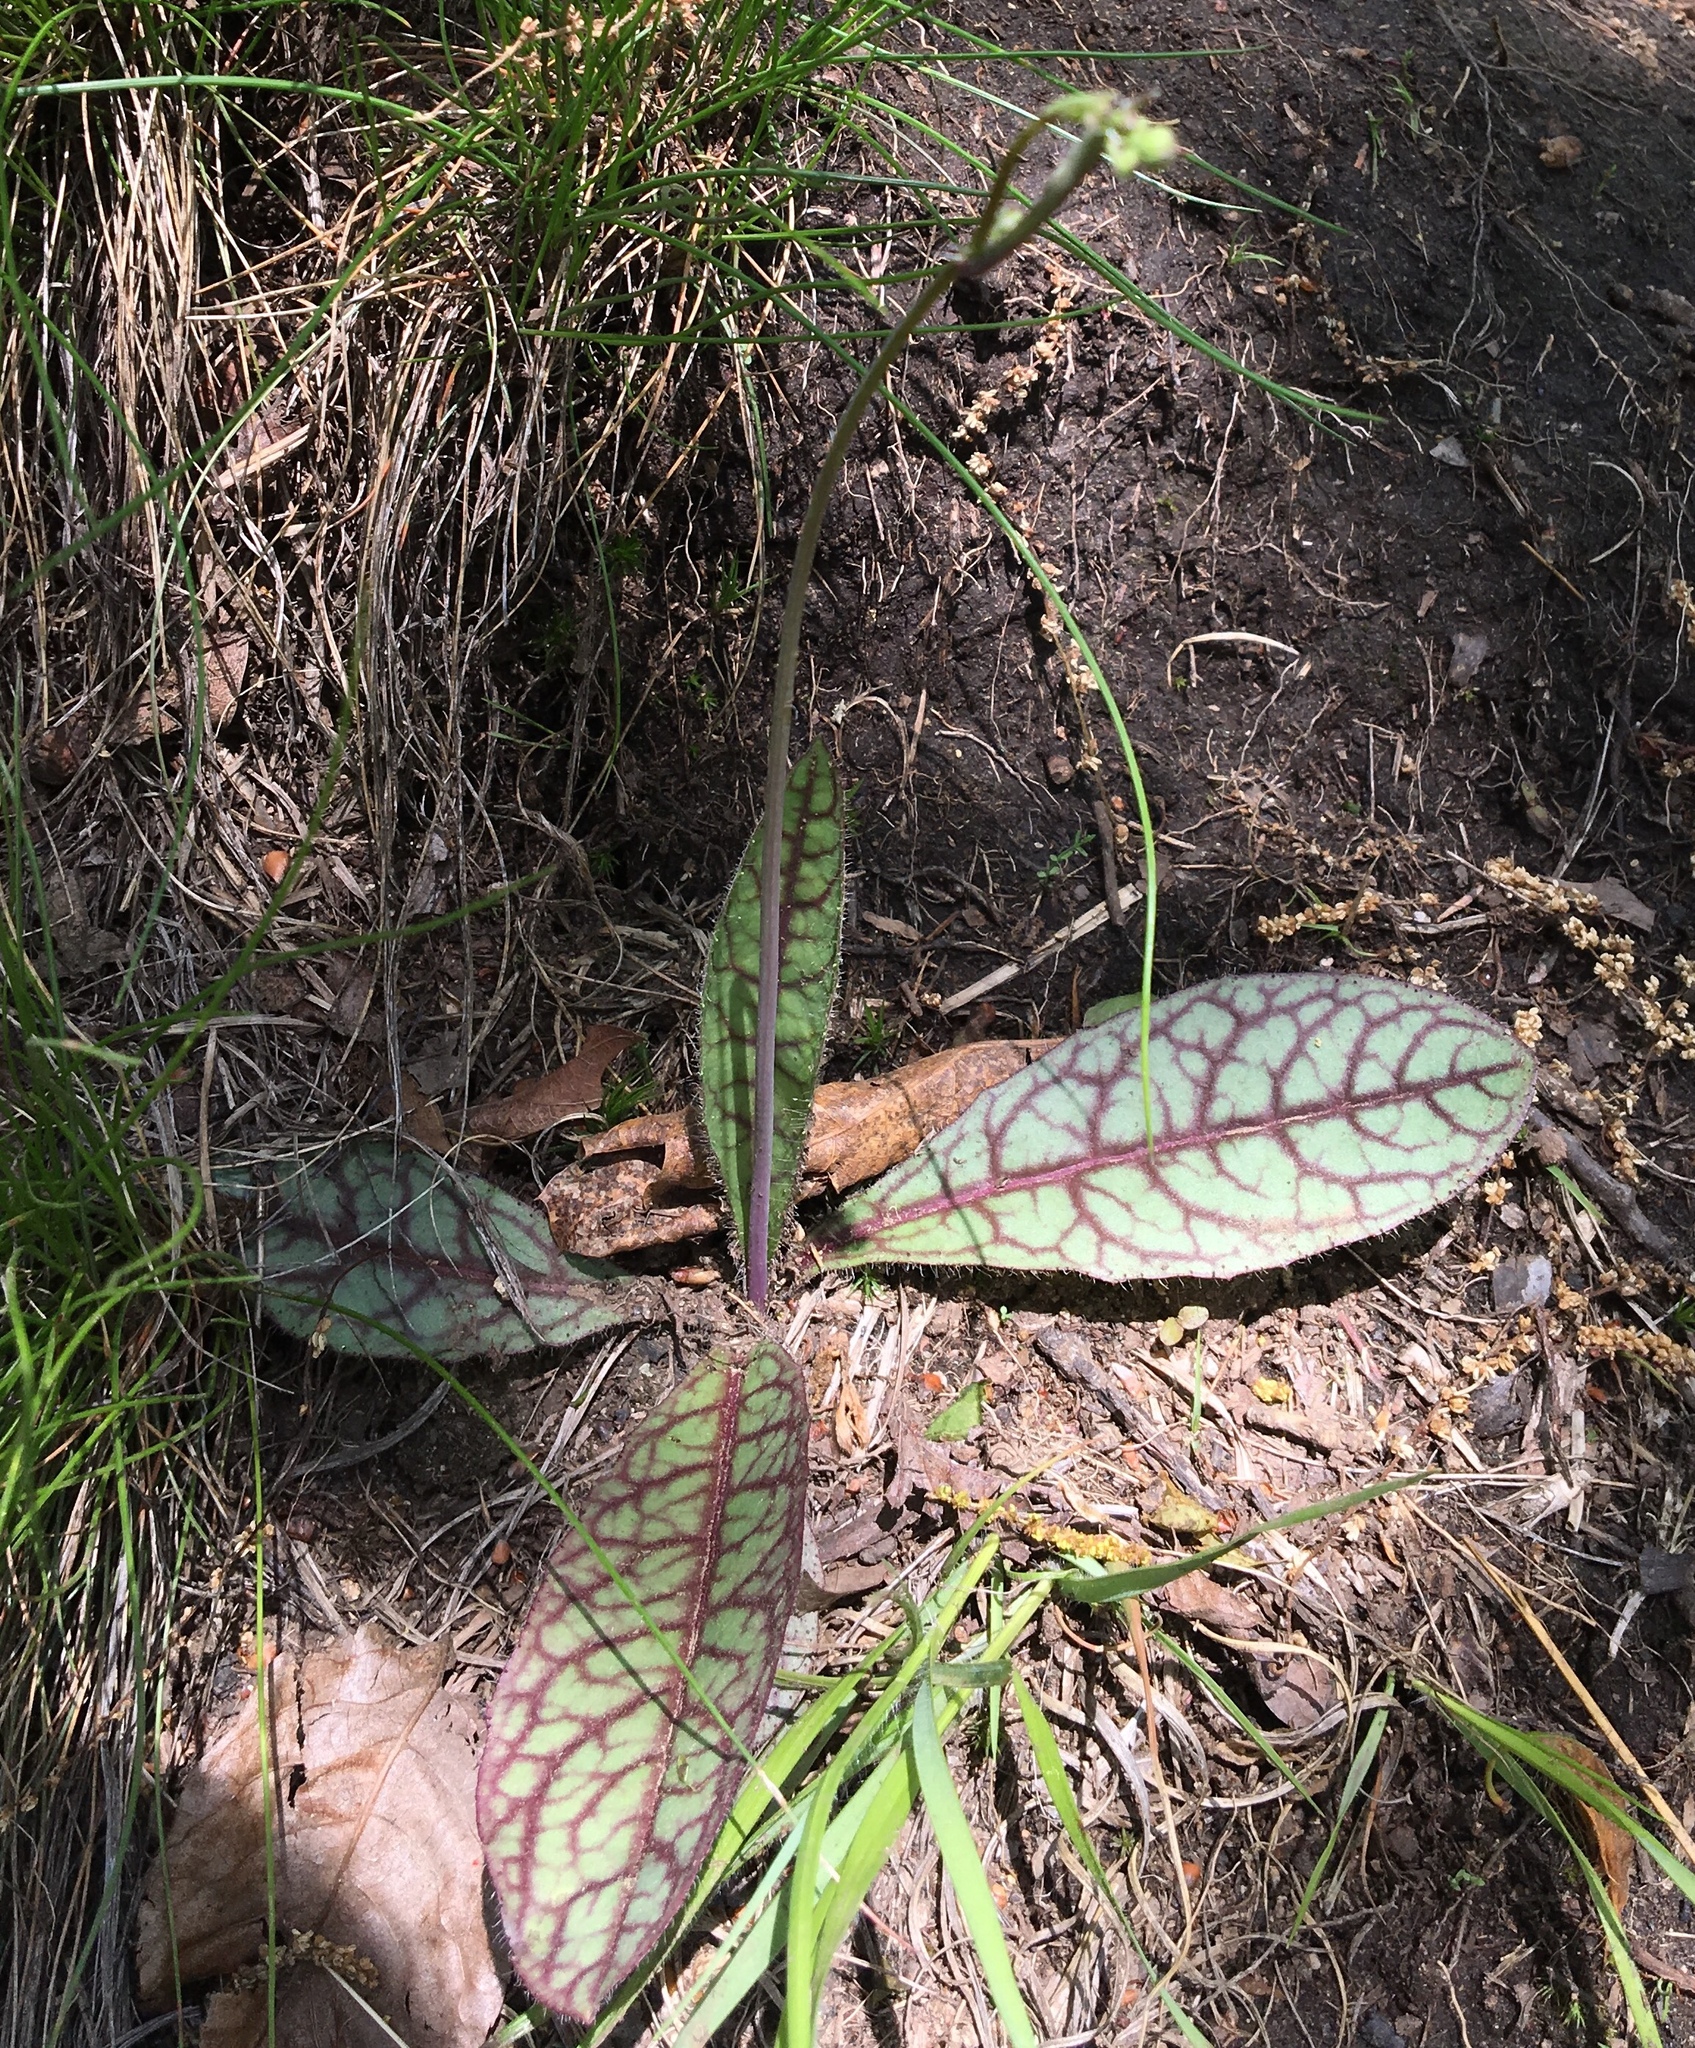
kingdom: Plantae
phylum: Tracheophyta
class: Magnoliopsida
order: Asterales
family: Asteraceae
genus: Hieracium
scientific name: Hieracium venosum
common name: Rattlesnake hawkweed
